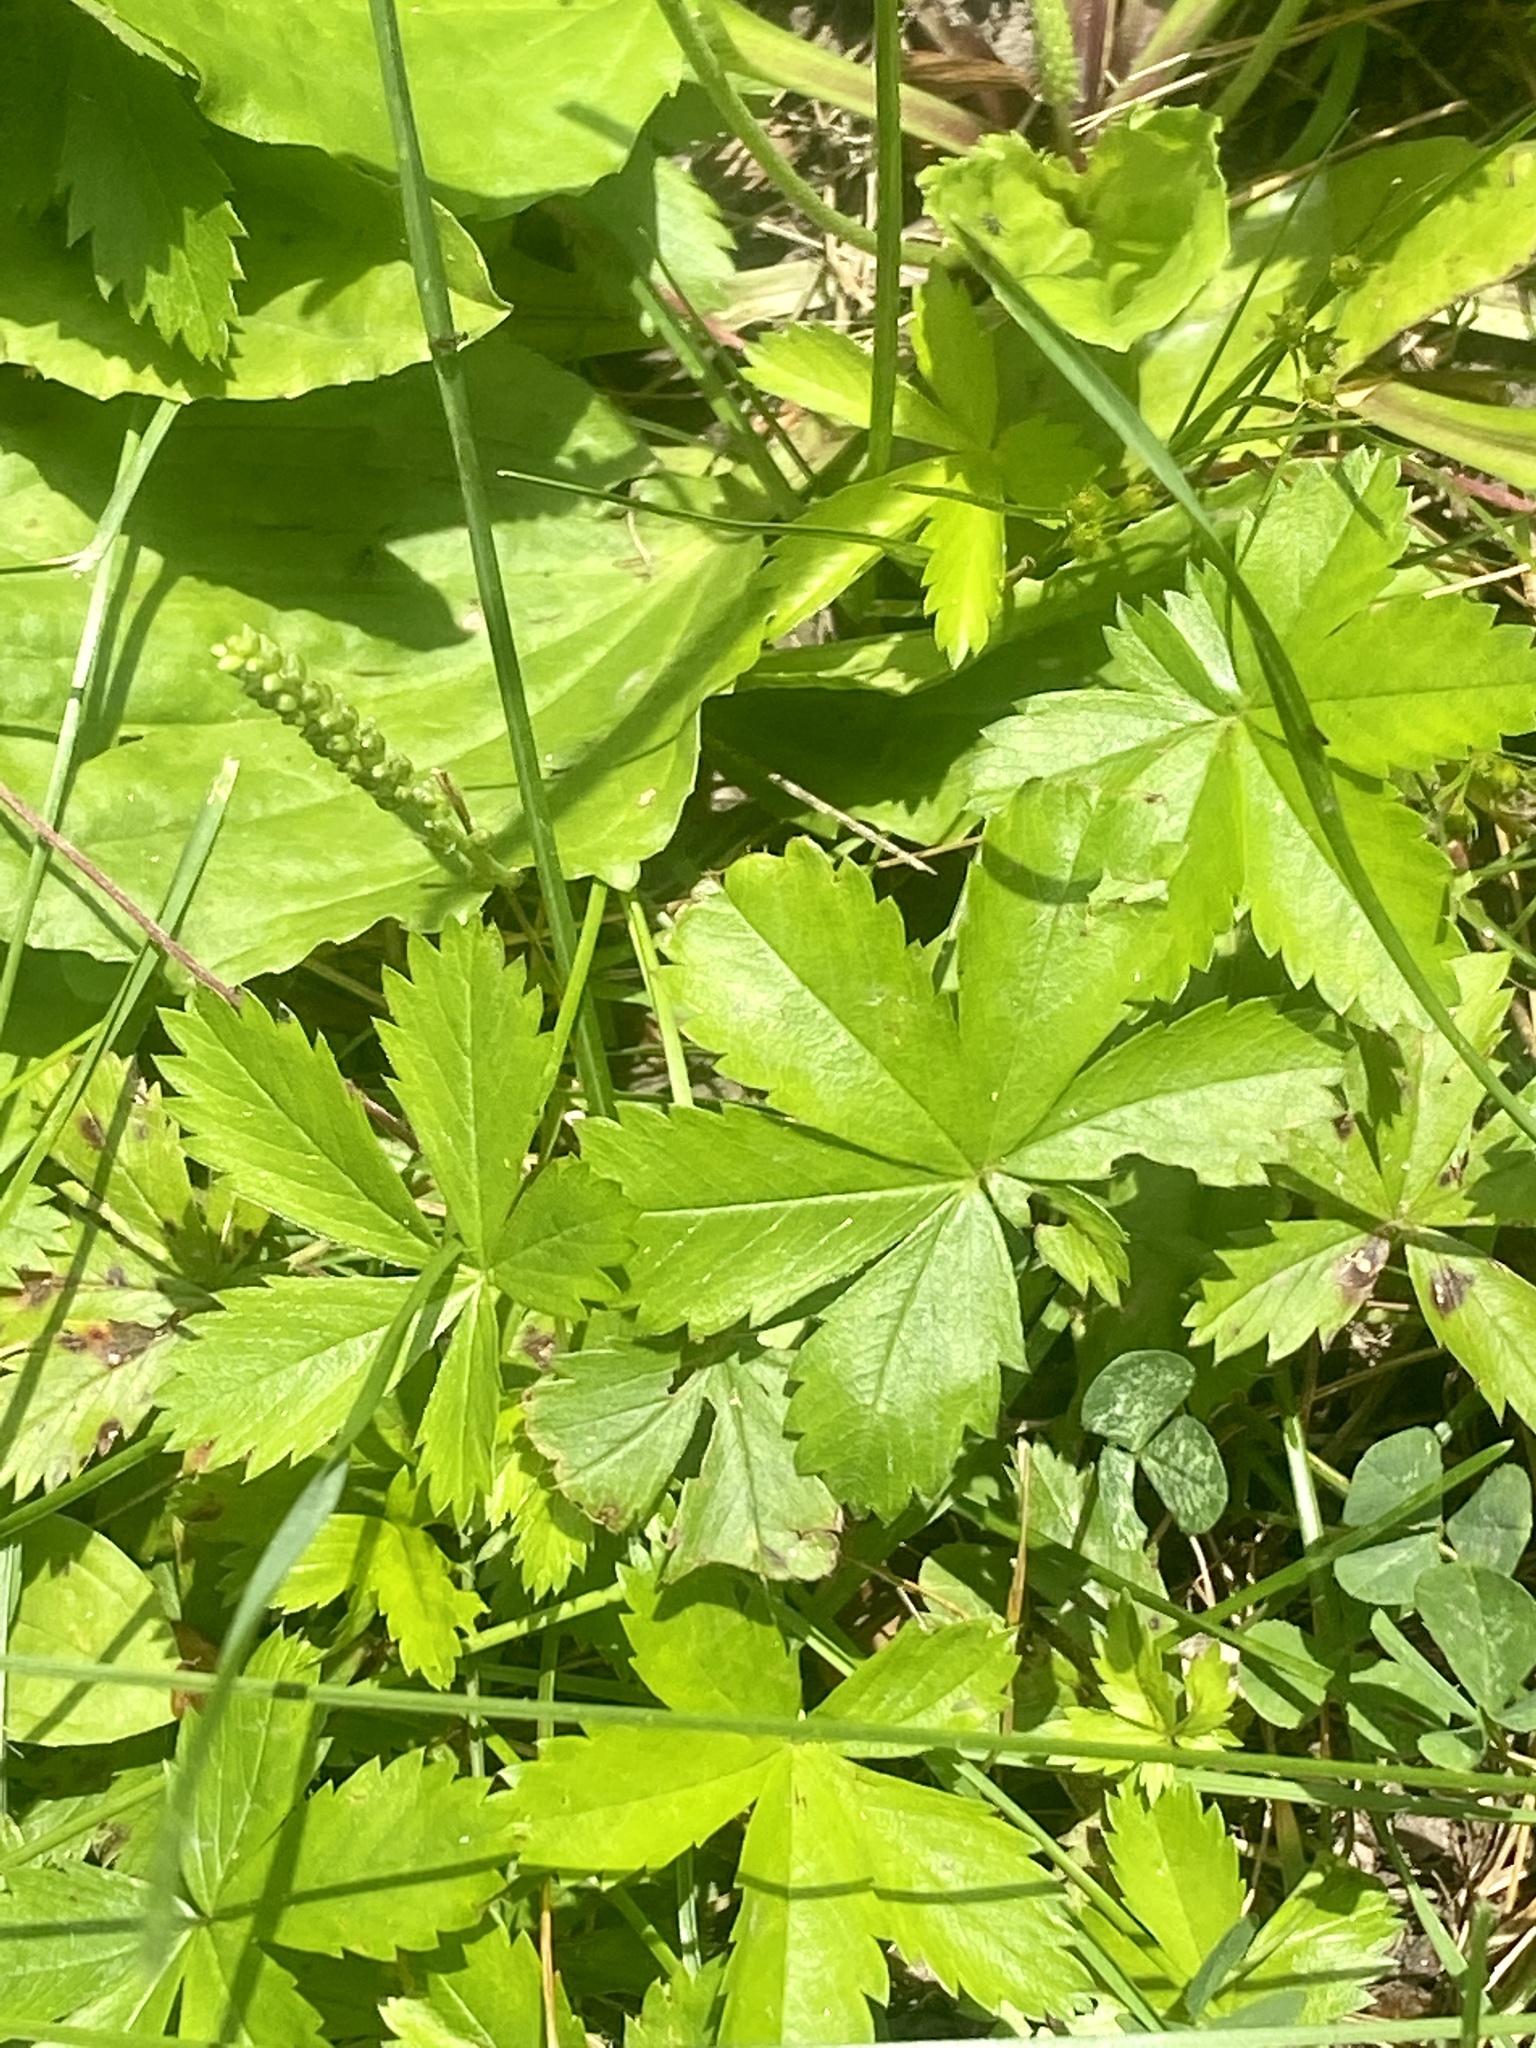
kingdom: Plantae
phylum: Tracheophyta
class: Magnoliopsida
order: Rosales
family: Rosaceae
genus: Potentilla
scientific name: Potentilla canadensis
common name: Canada cinquefoil
